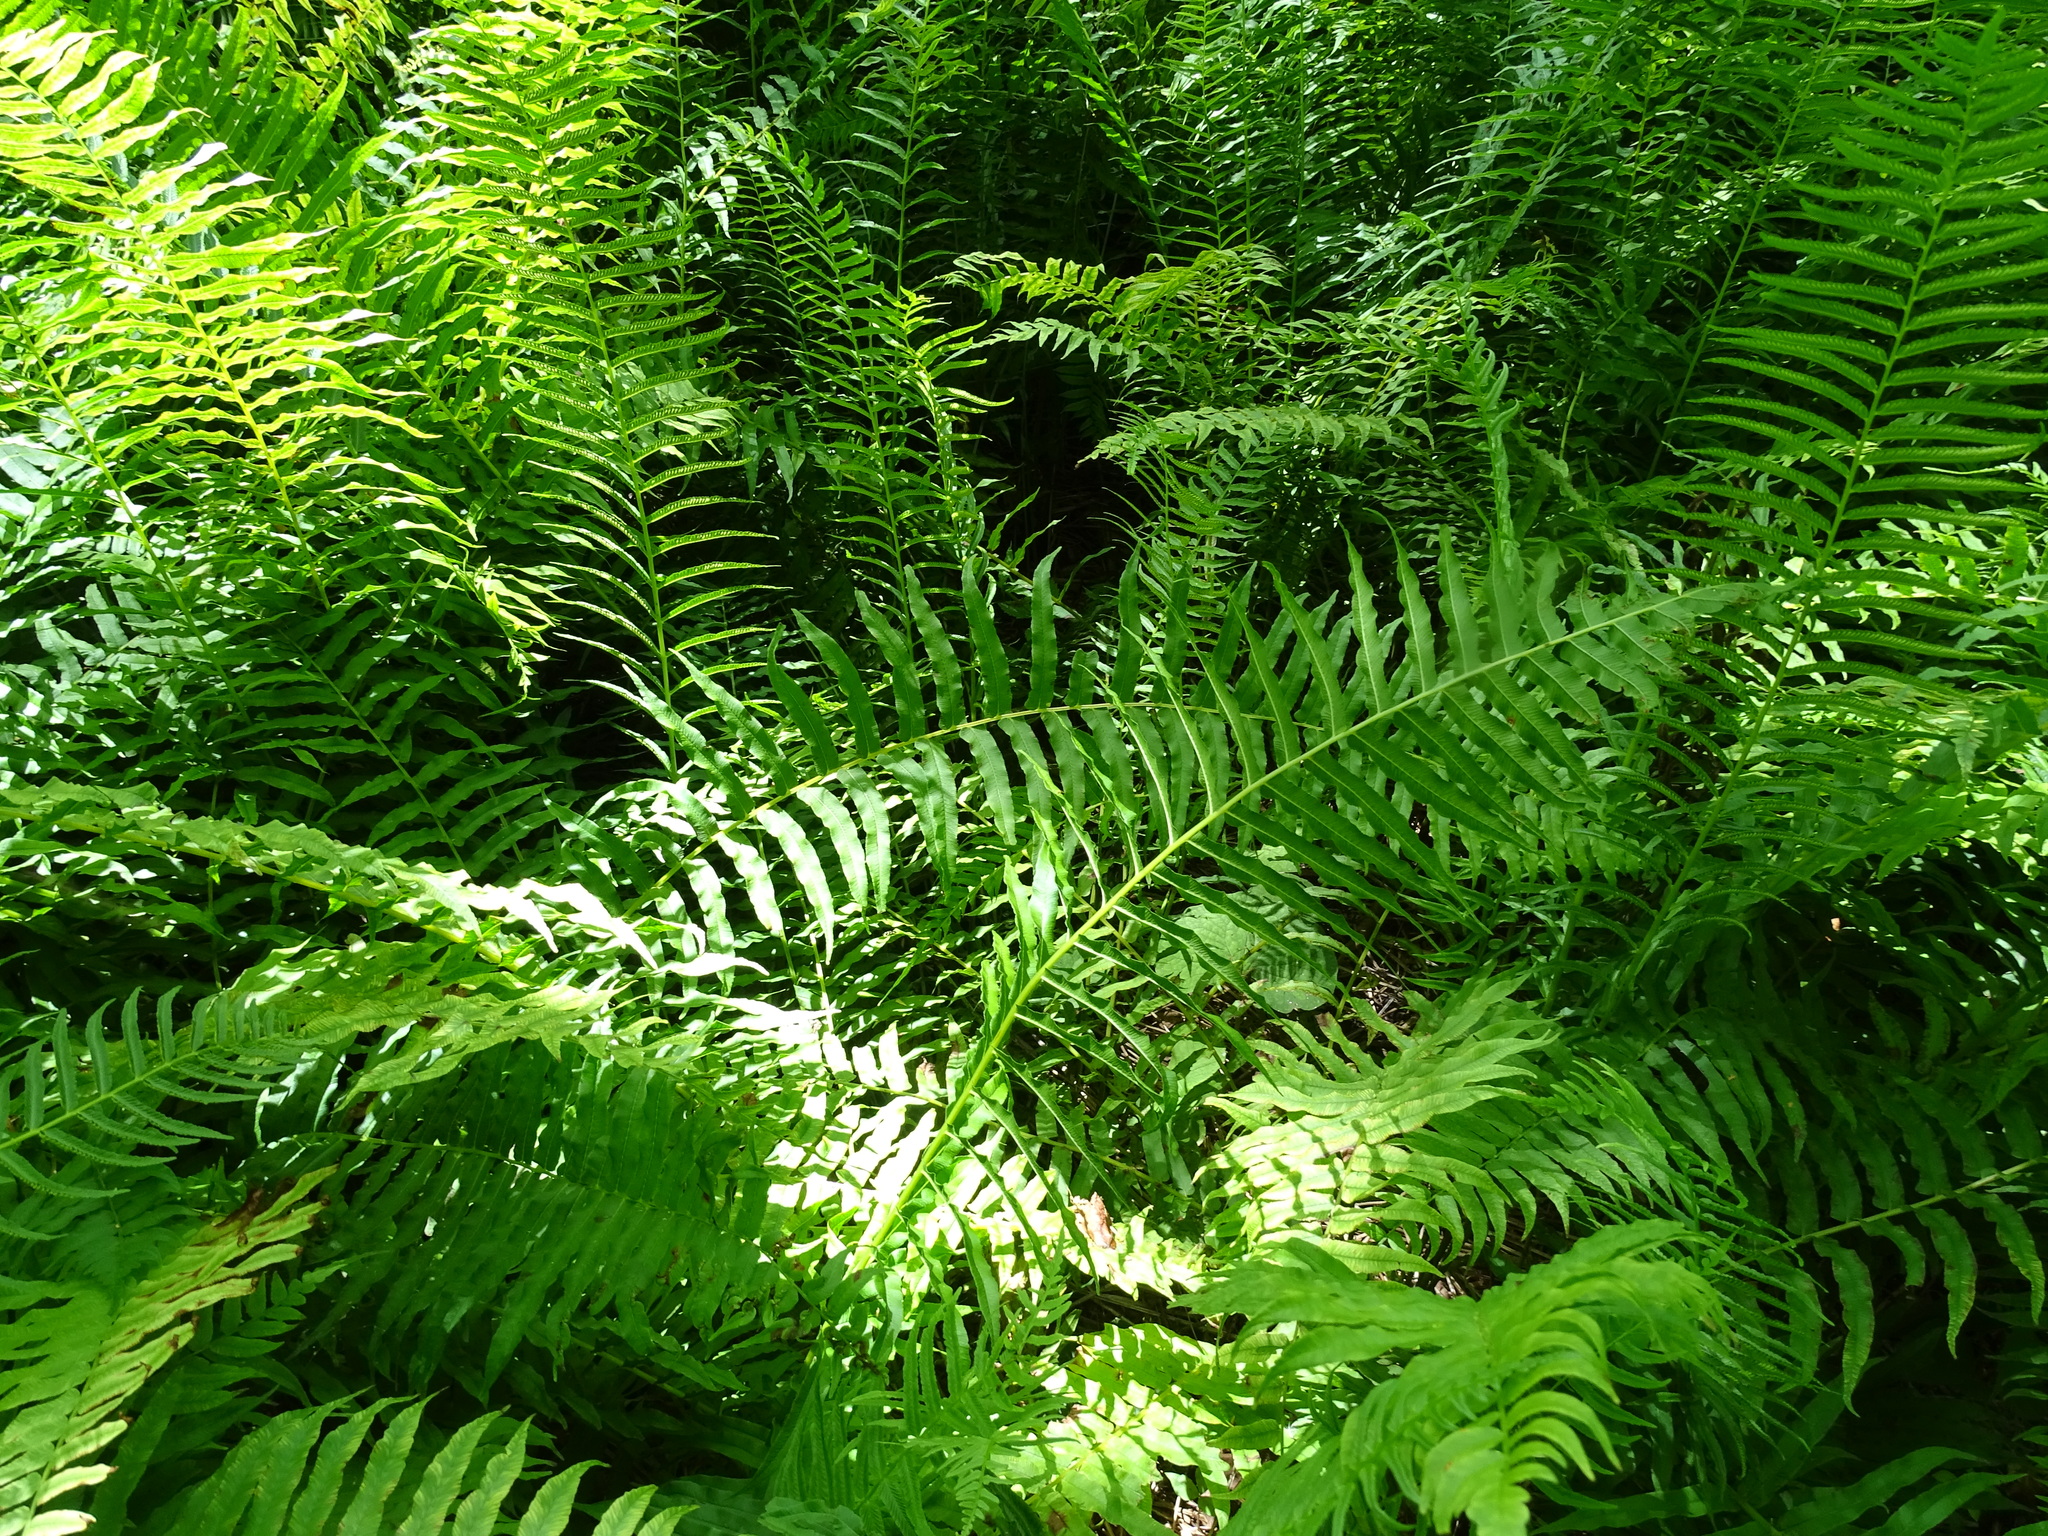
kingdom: Plantae
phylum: Tracheophyta
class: Polypodiopsida
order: Polypodiales
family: Diplaziopsidaceae
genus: Homalosorus
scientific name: Homalosorus pycnocarpos
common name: Glade fern
